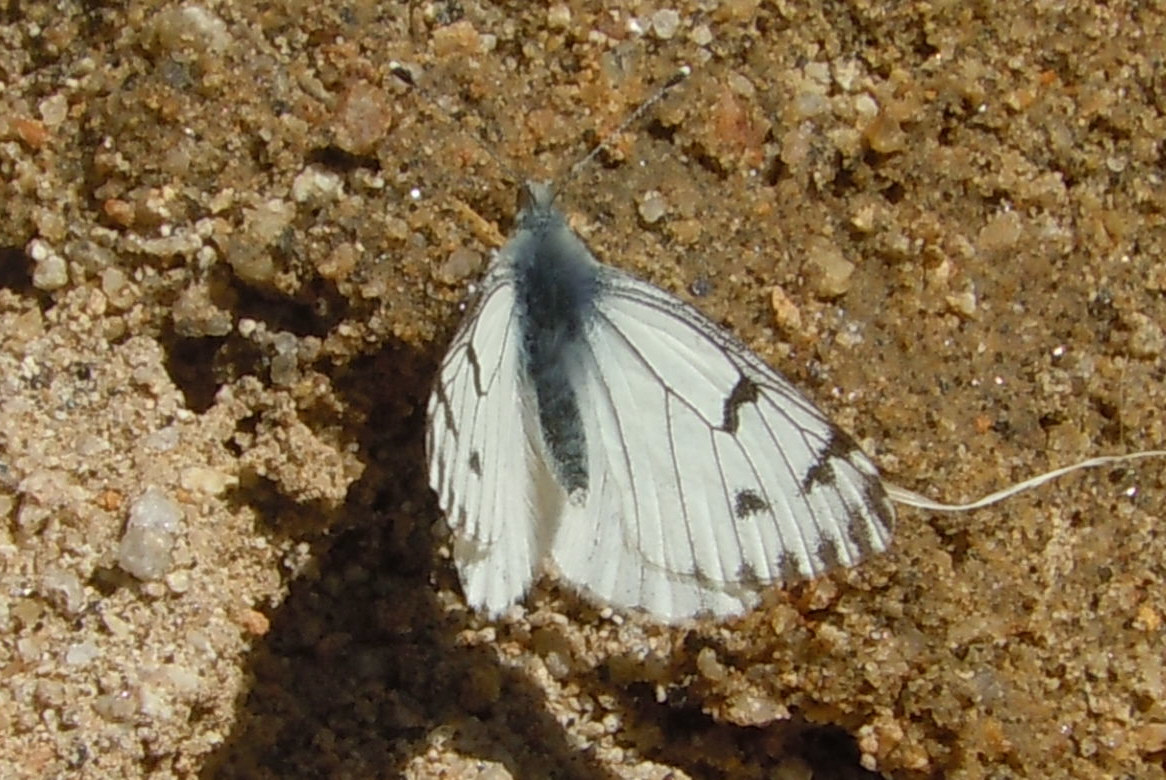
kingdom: Animalia
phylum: Arthropoda
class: Insecta
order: Lepidoptera
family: Pieridae
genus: Pontia
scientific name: Pontia sisymbrii
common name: California white
